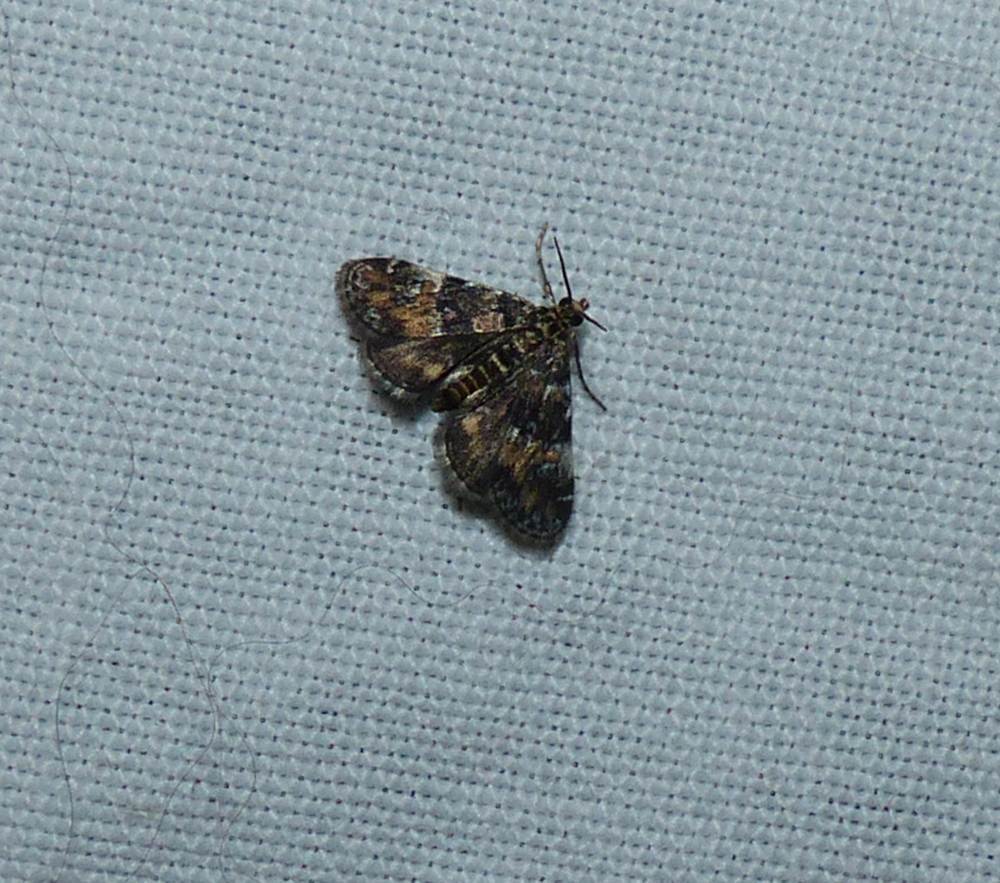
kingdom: Animalia
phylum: Arthropoda
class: Insecta
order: Lepidoptera
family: Crambidae
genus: Elophila
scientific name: Elophila obliteralis
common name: Waterlily leafcutter moth
